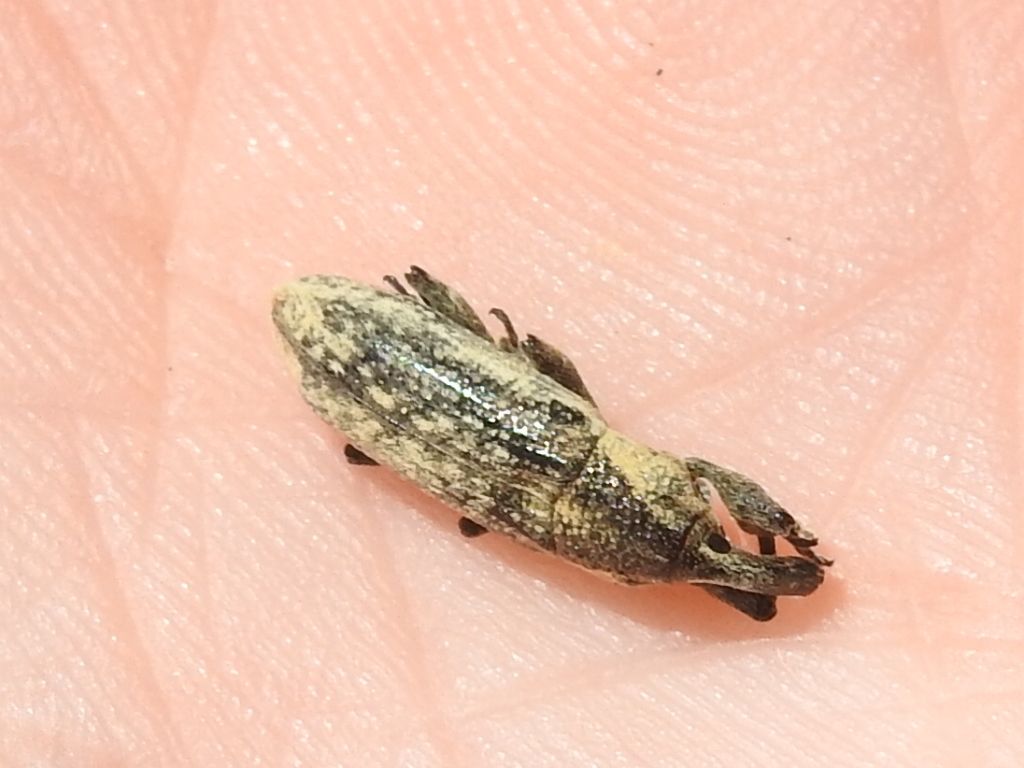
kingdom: Animalia
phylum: Arthropoda
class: Insecta
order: Coleoptera
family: Curculionidae
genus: Lixus
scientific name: Lixus scrobicollis
